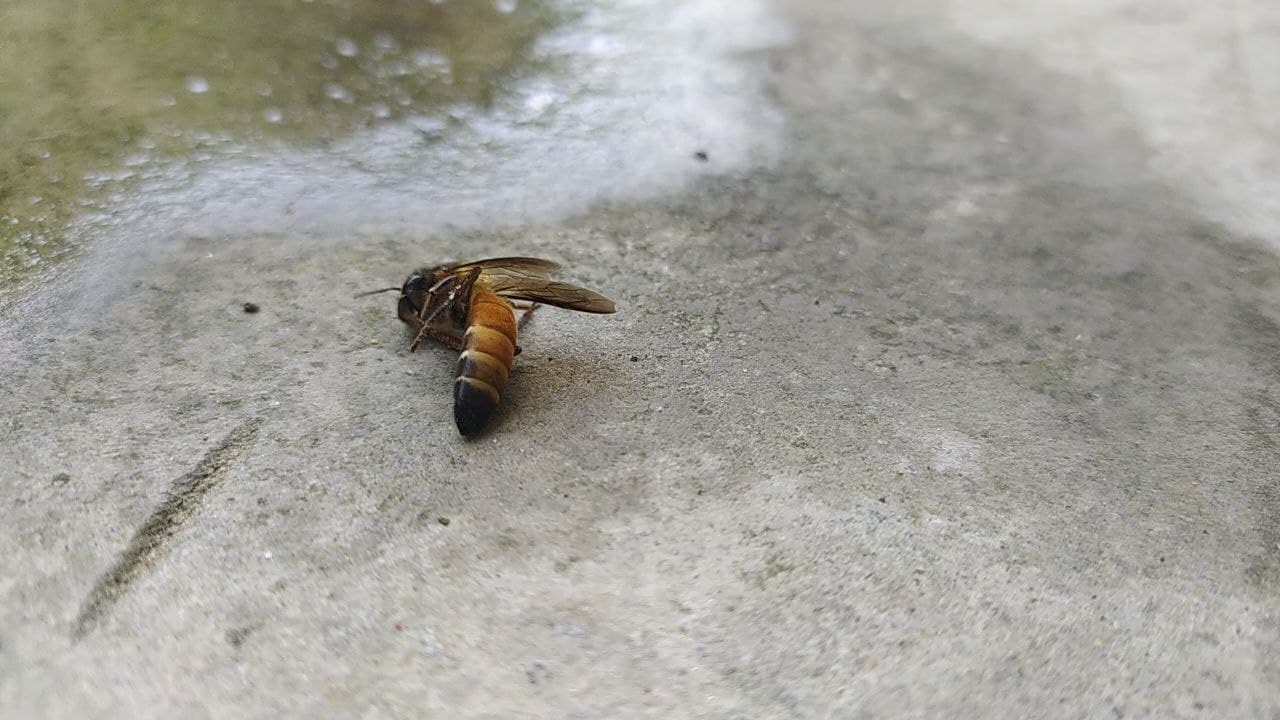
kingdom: Animalia
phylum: Arthropoda
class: Insecta
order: Hymenoptera
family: Apidae
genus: Apis
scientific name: Apis dorsata
